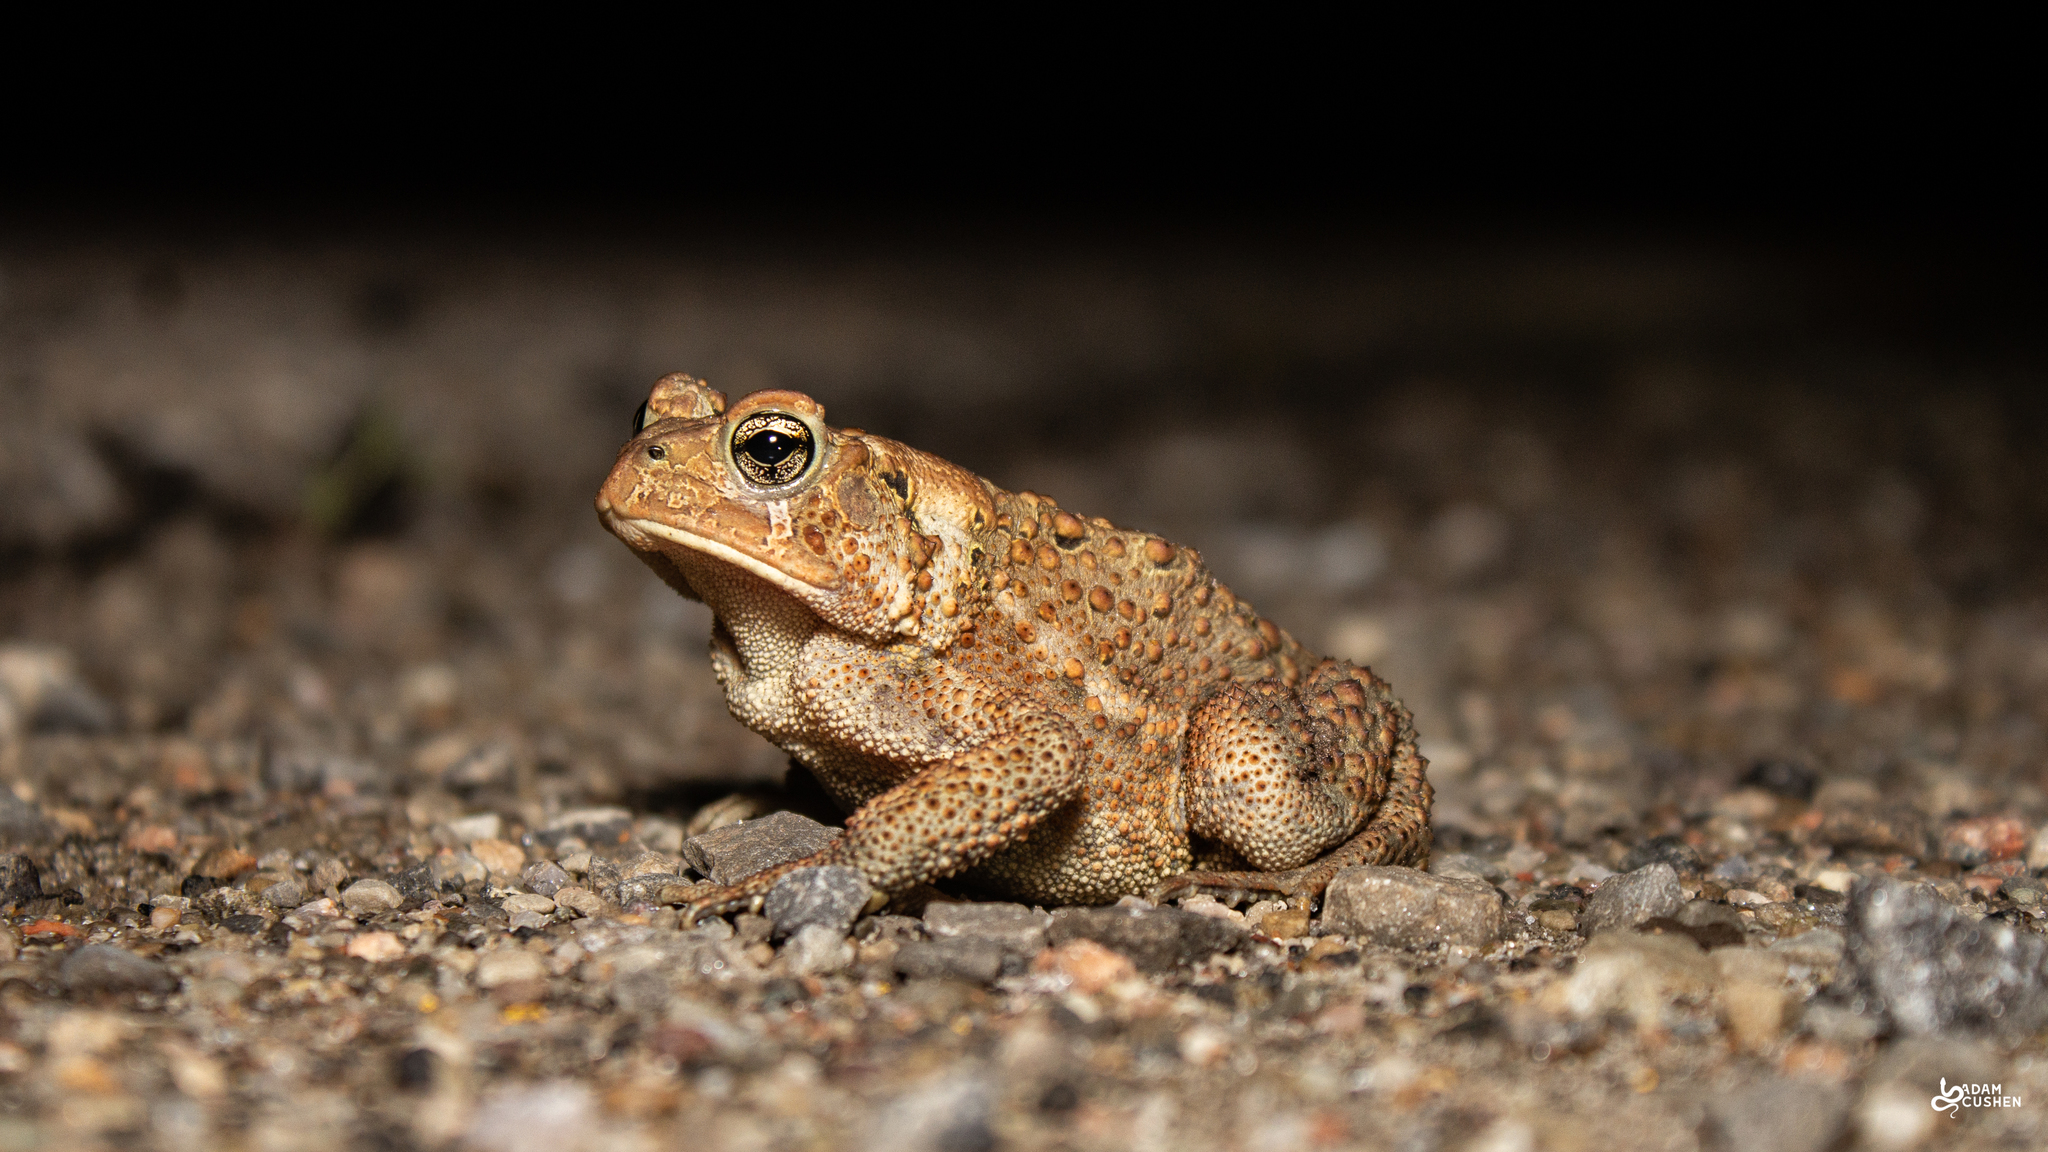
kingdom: Animalia
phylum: Chordata
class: Amphibia
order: Anura
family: Bufonidae
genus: Anaxyrus
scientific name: Anaxyrus americanus
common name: American toad
